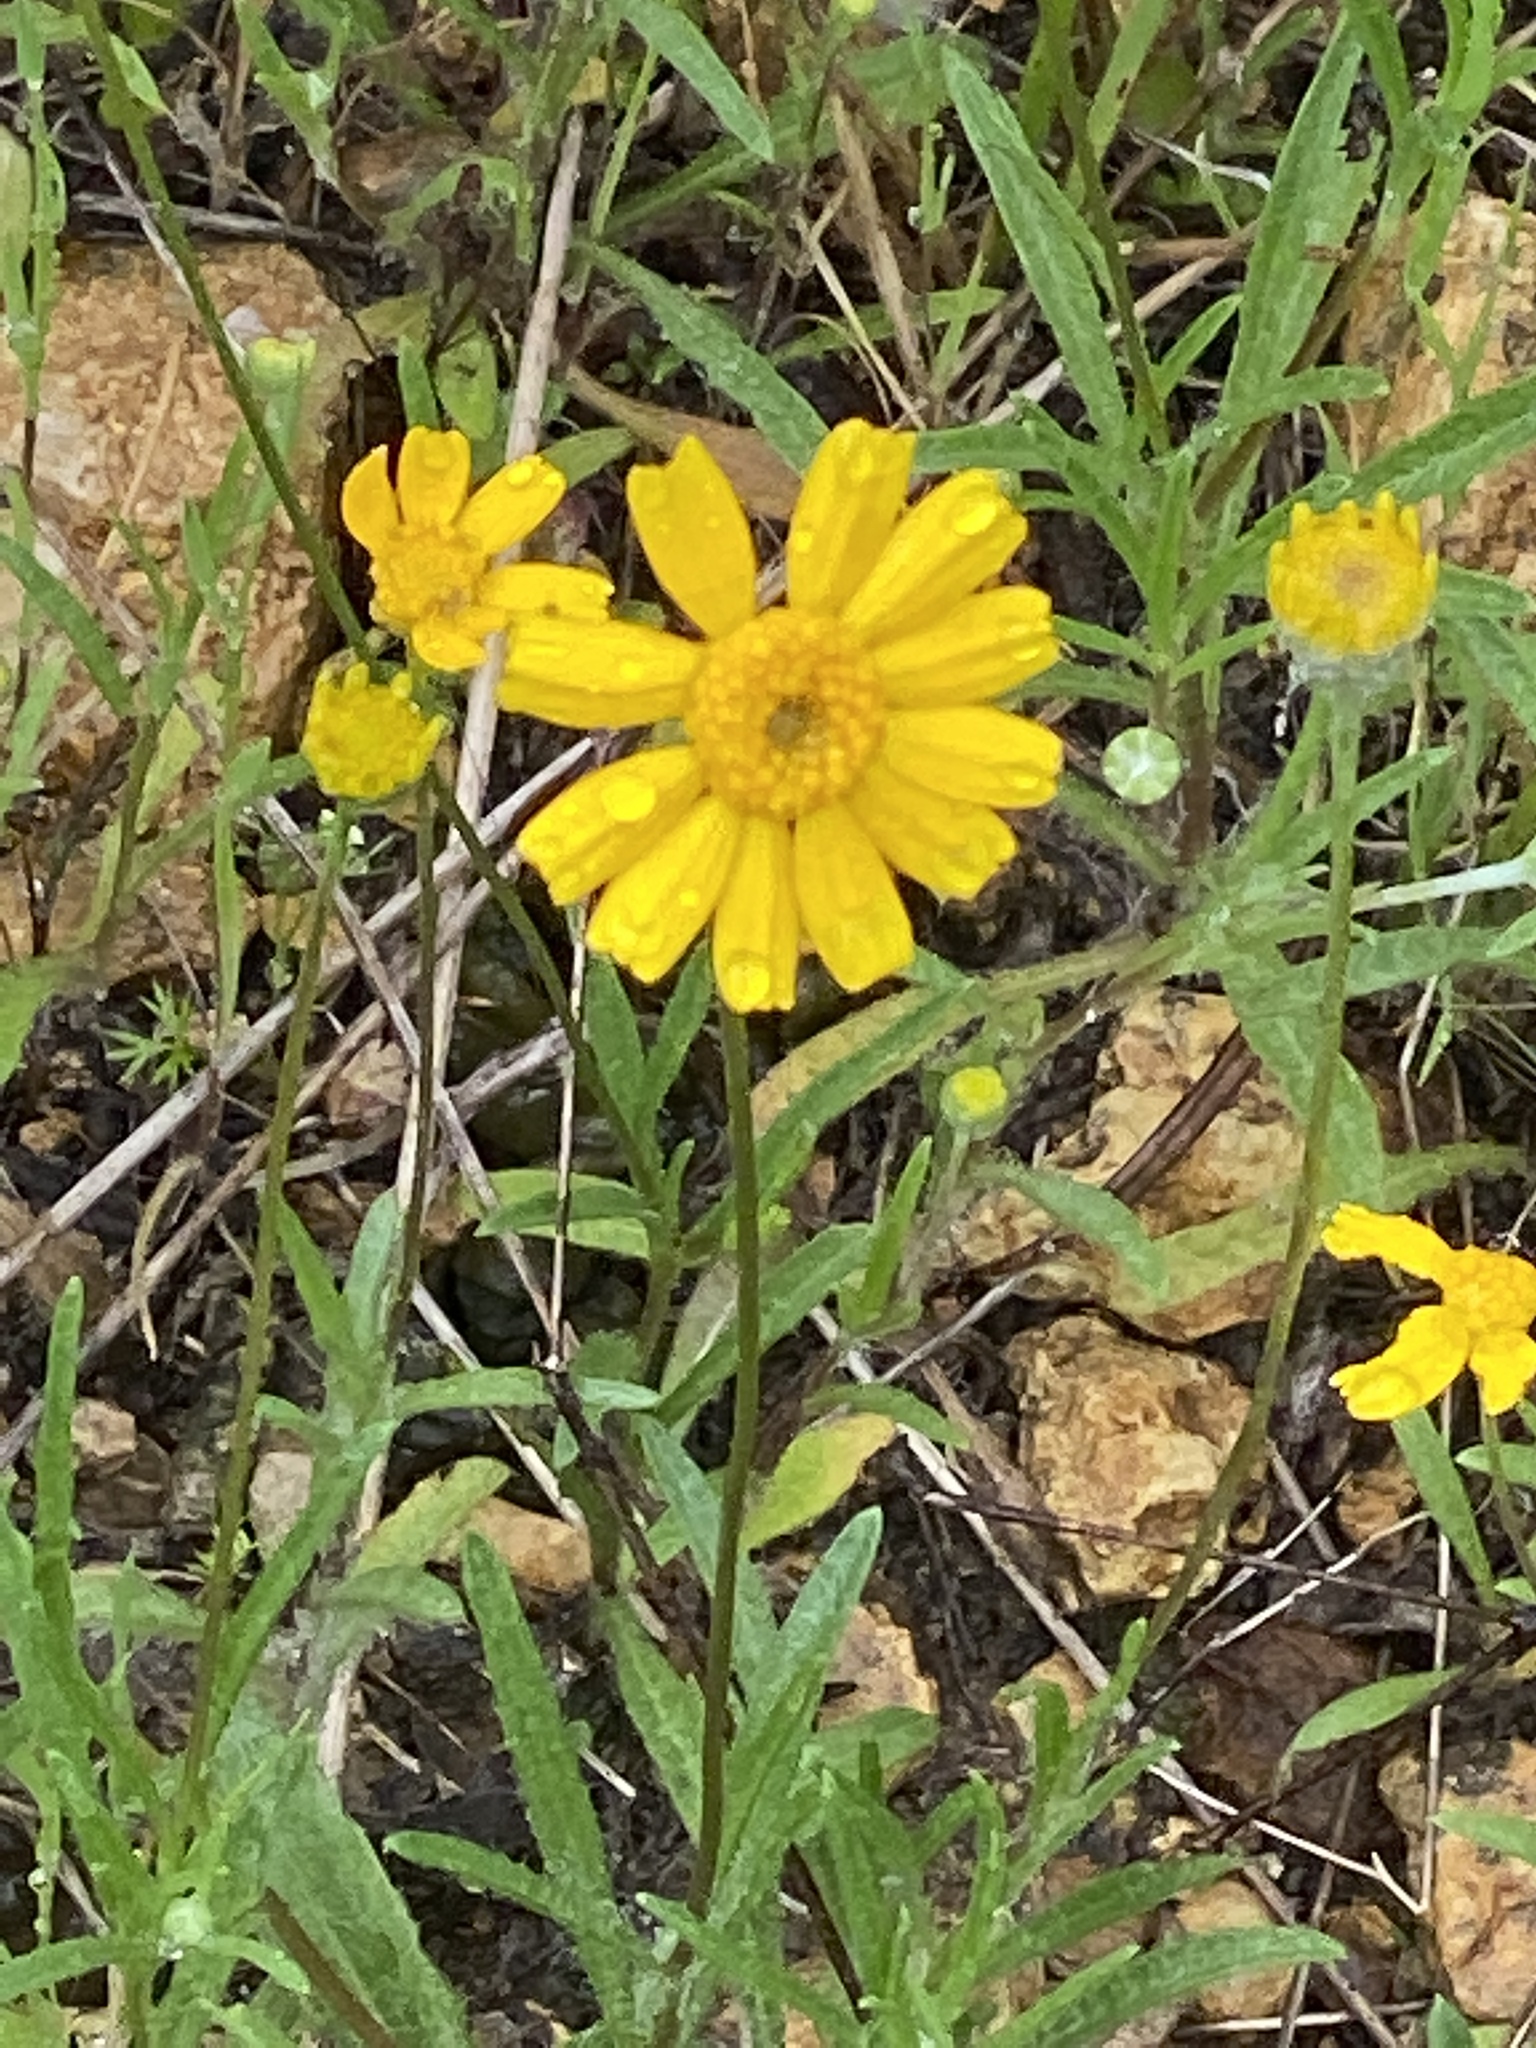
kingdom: Plantae
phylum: Tracheophyta
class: Magnoliopsida
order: Asterales
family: Asteraceae
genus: Tetraneuris
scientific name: Tetraneuris linearifolia
